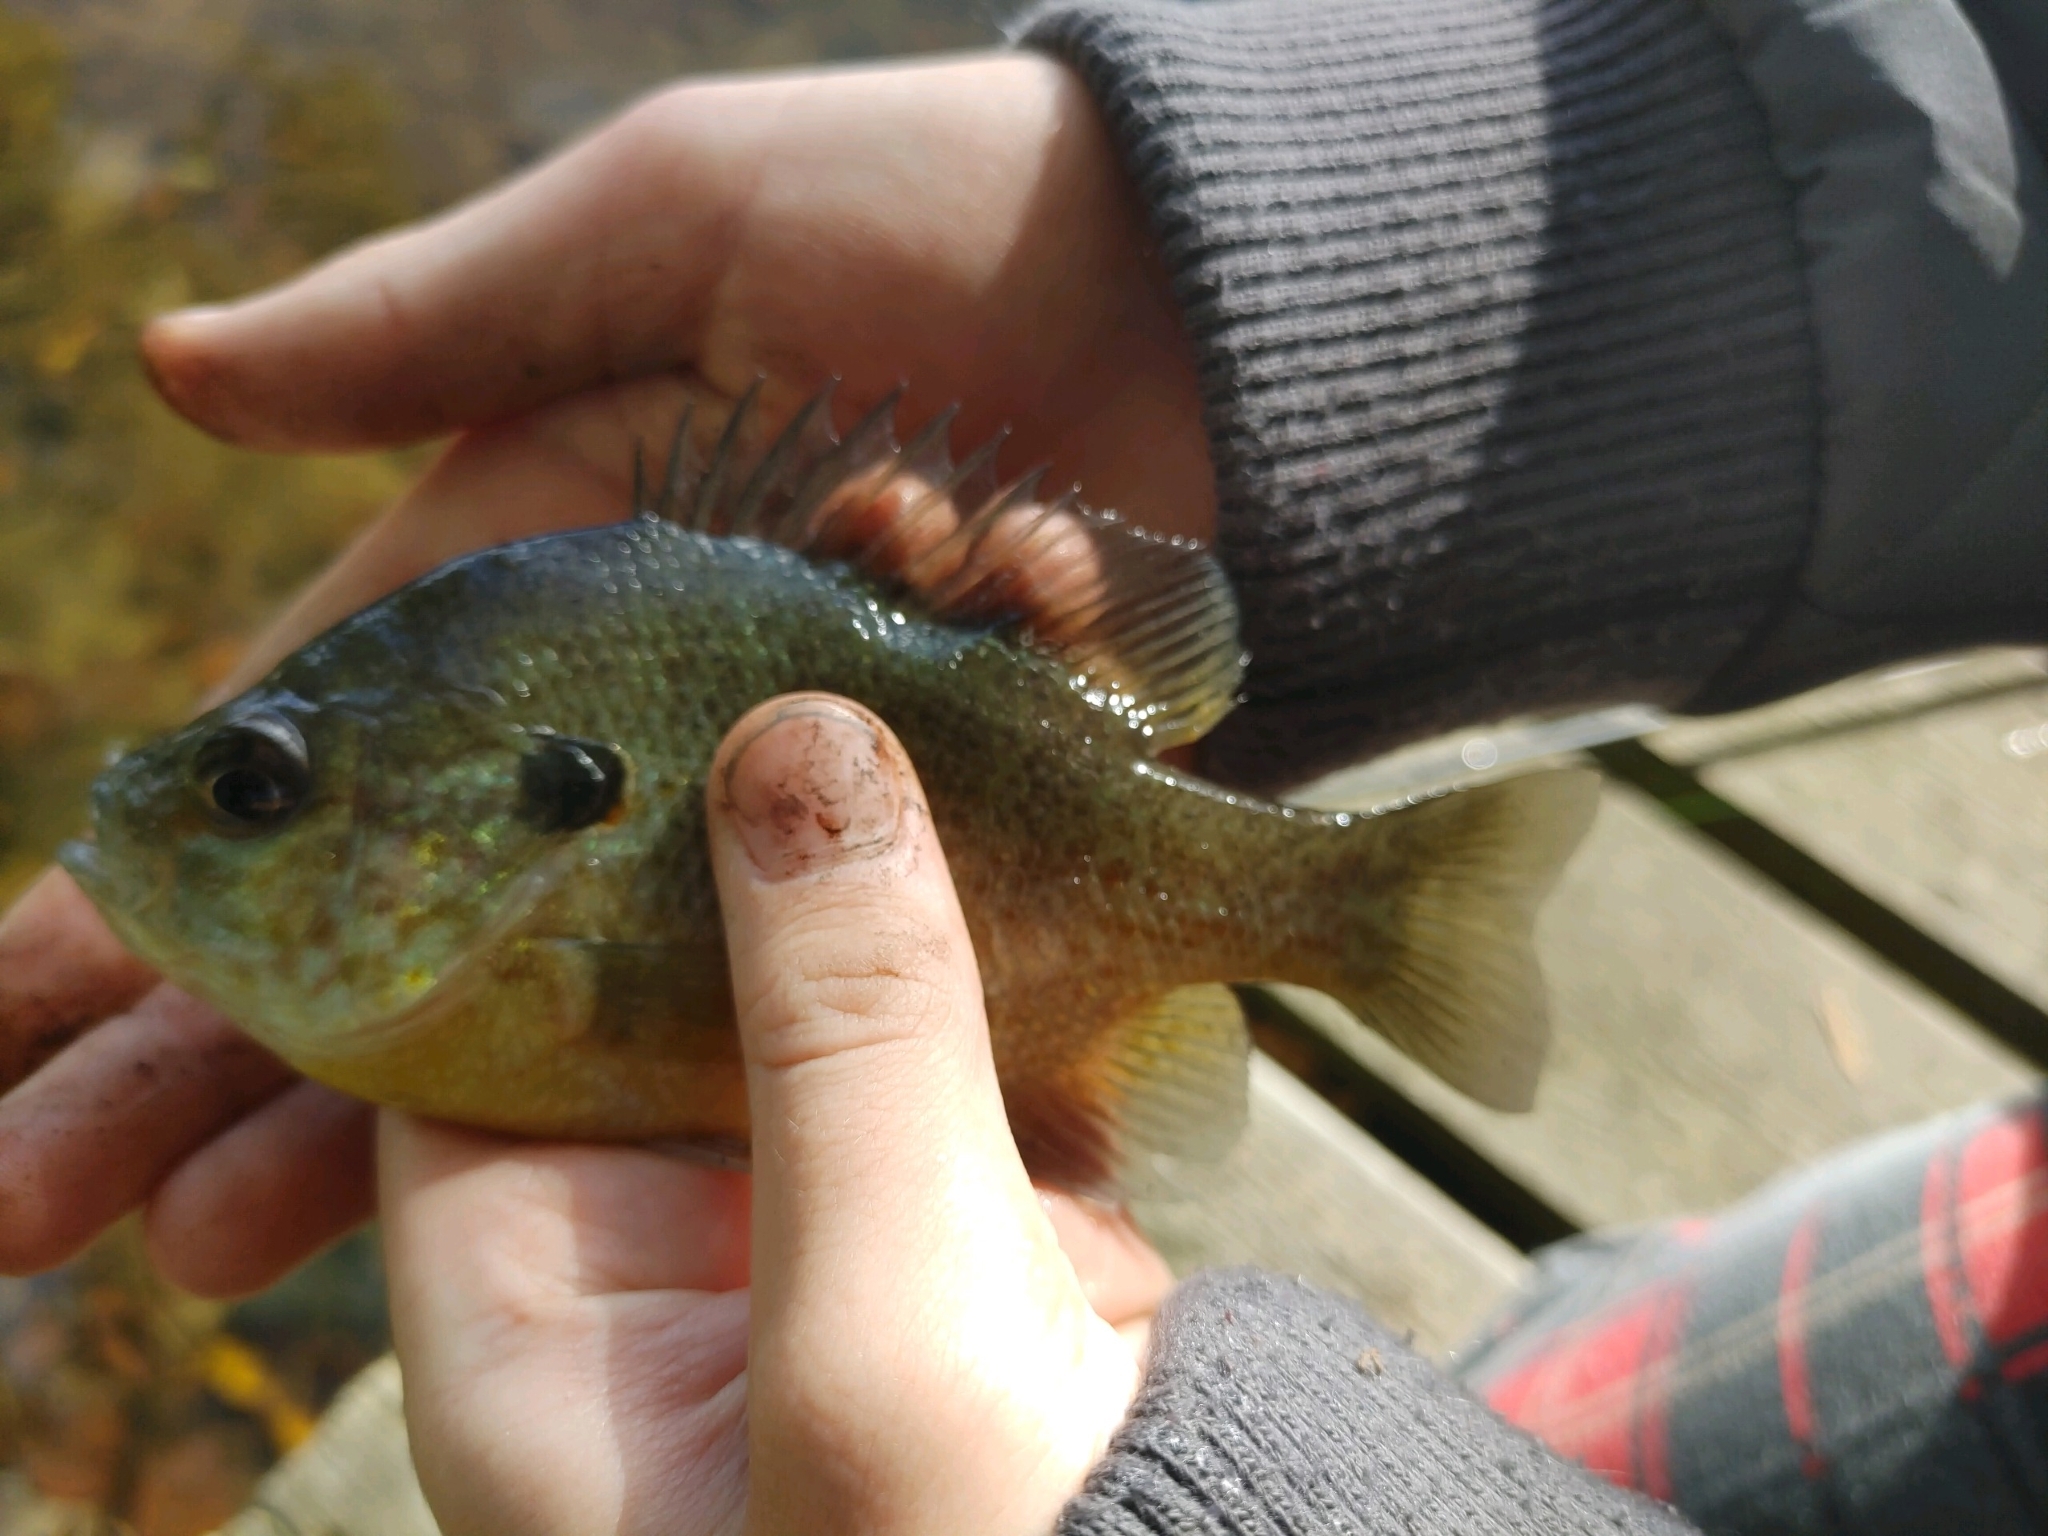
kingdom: Animalia
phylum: Chordata
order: Perciformes
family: Centrarchidae
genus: Lepomis
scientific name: Lepomis
